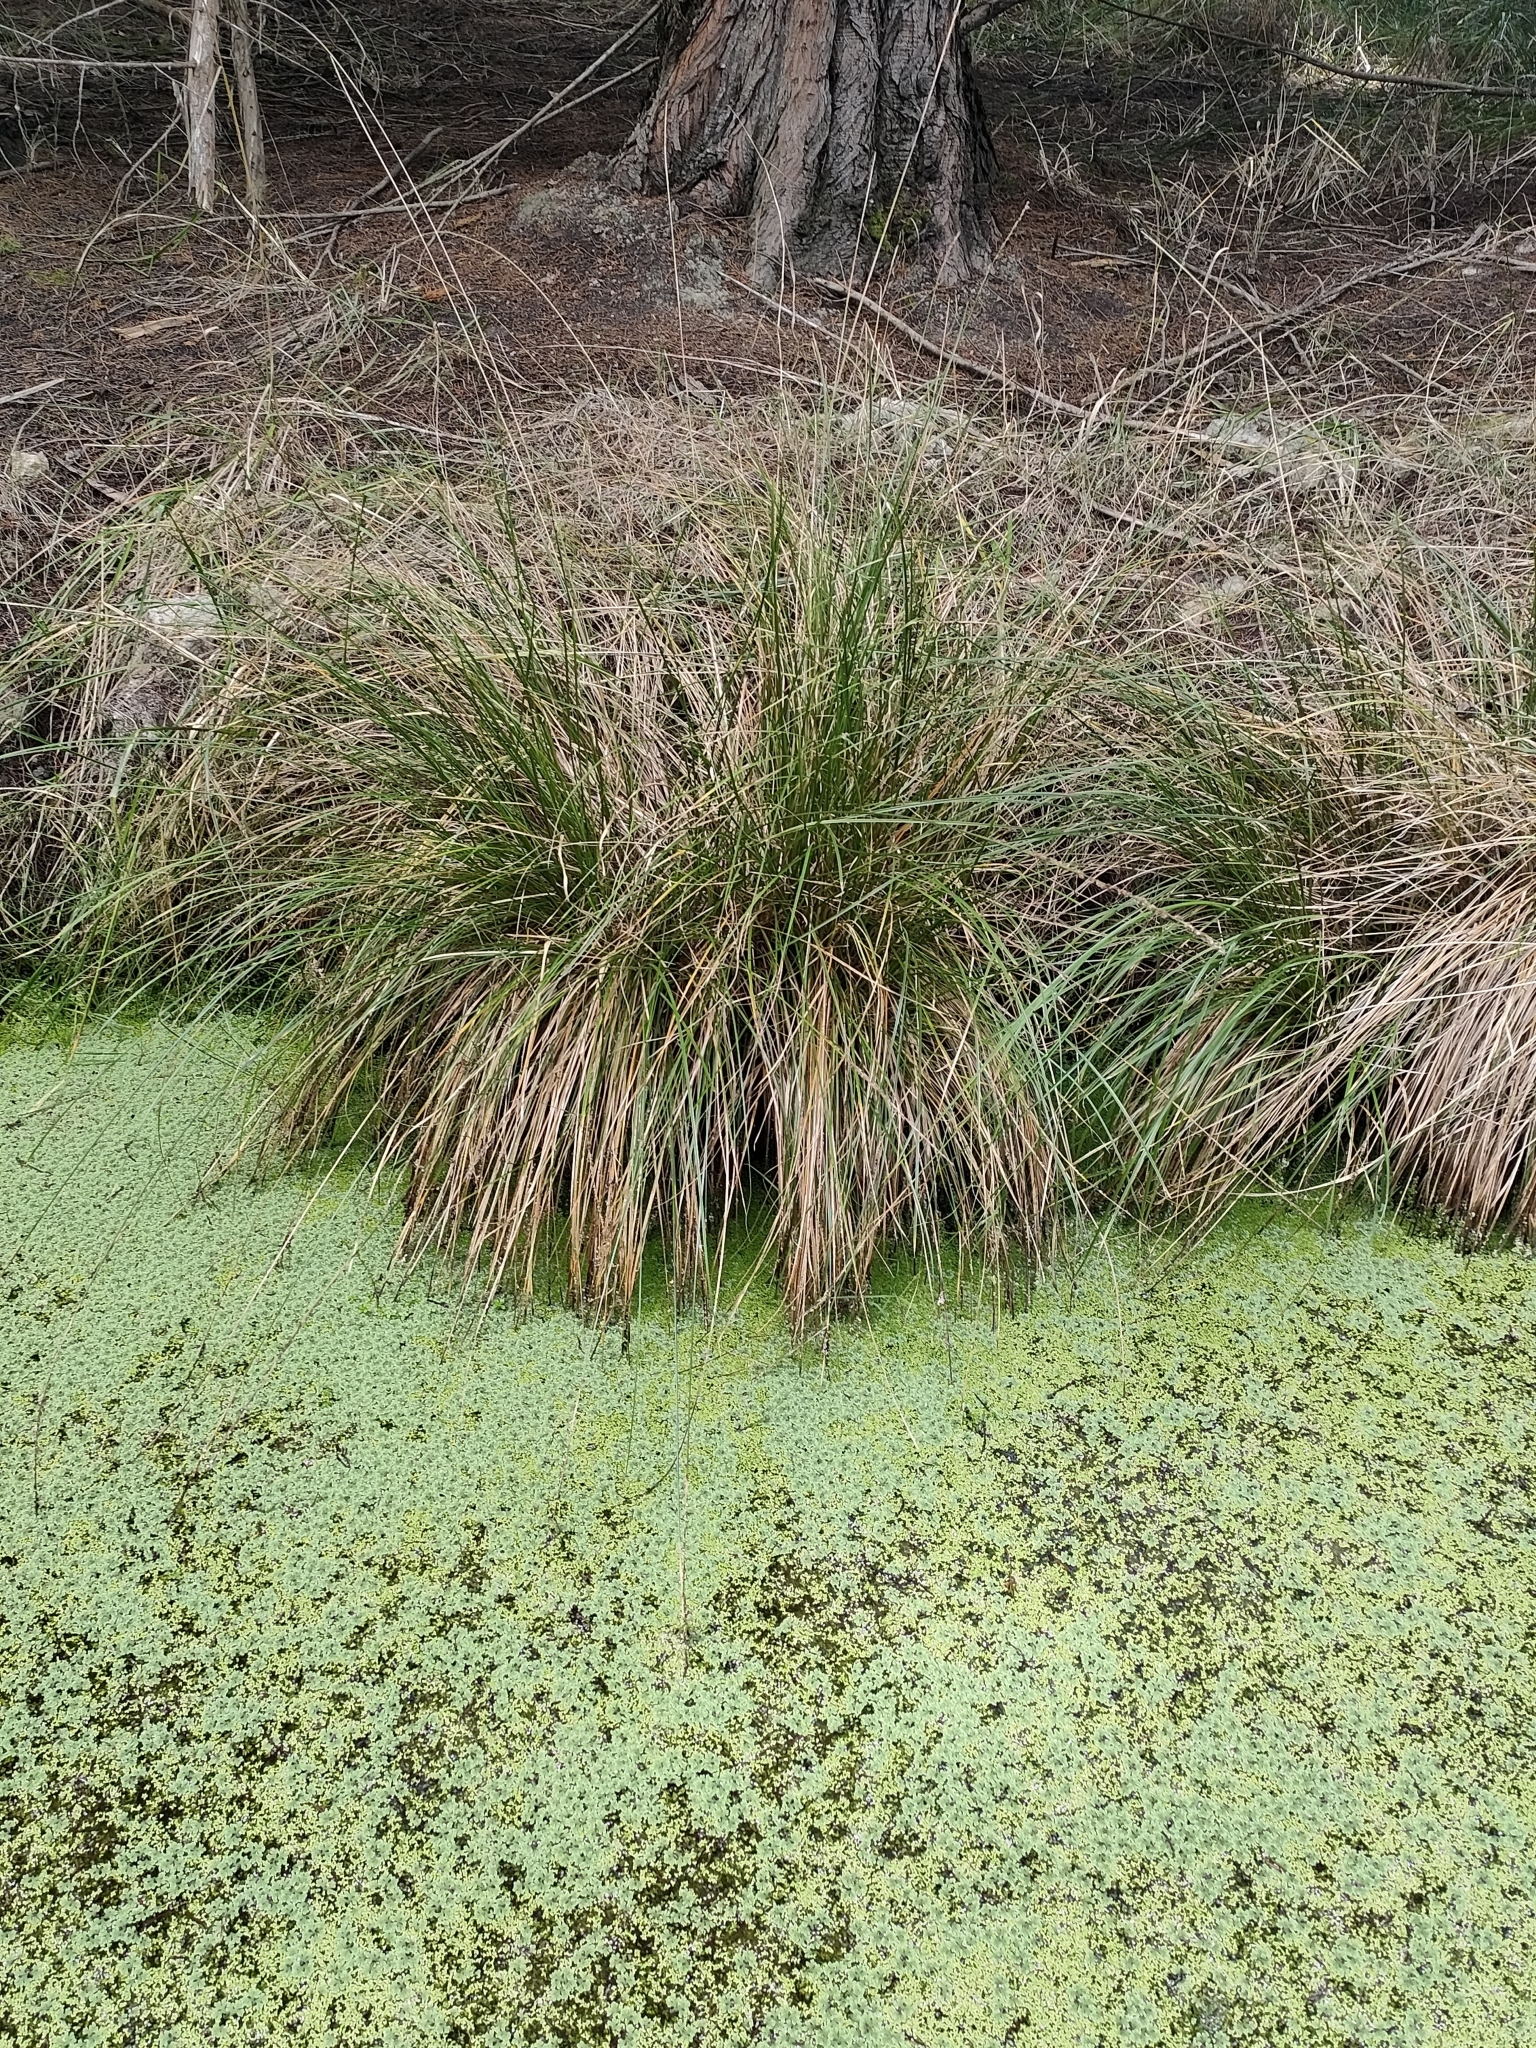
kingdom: Plantae
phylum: Tracheophyta
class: Liliopsida
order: Poales
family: Cyperaceae
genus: Carex
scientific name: Carex virgata
